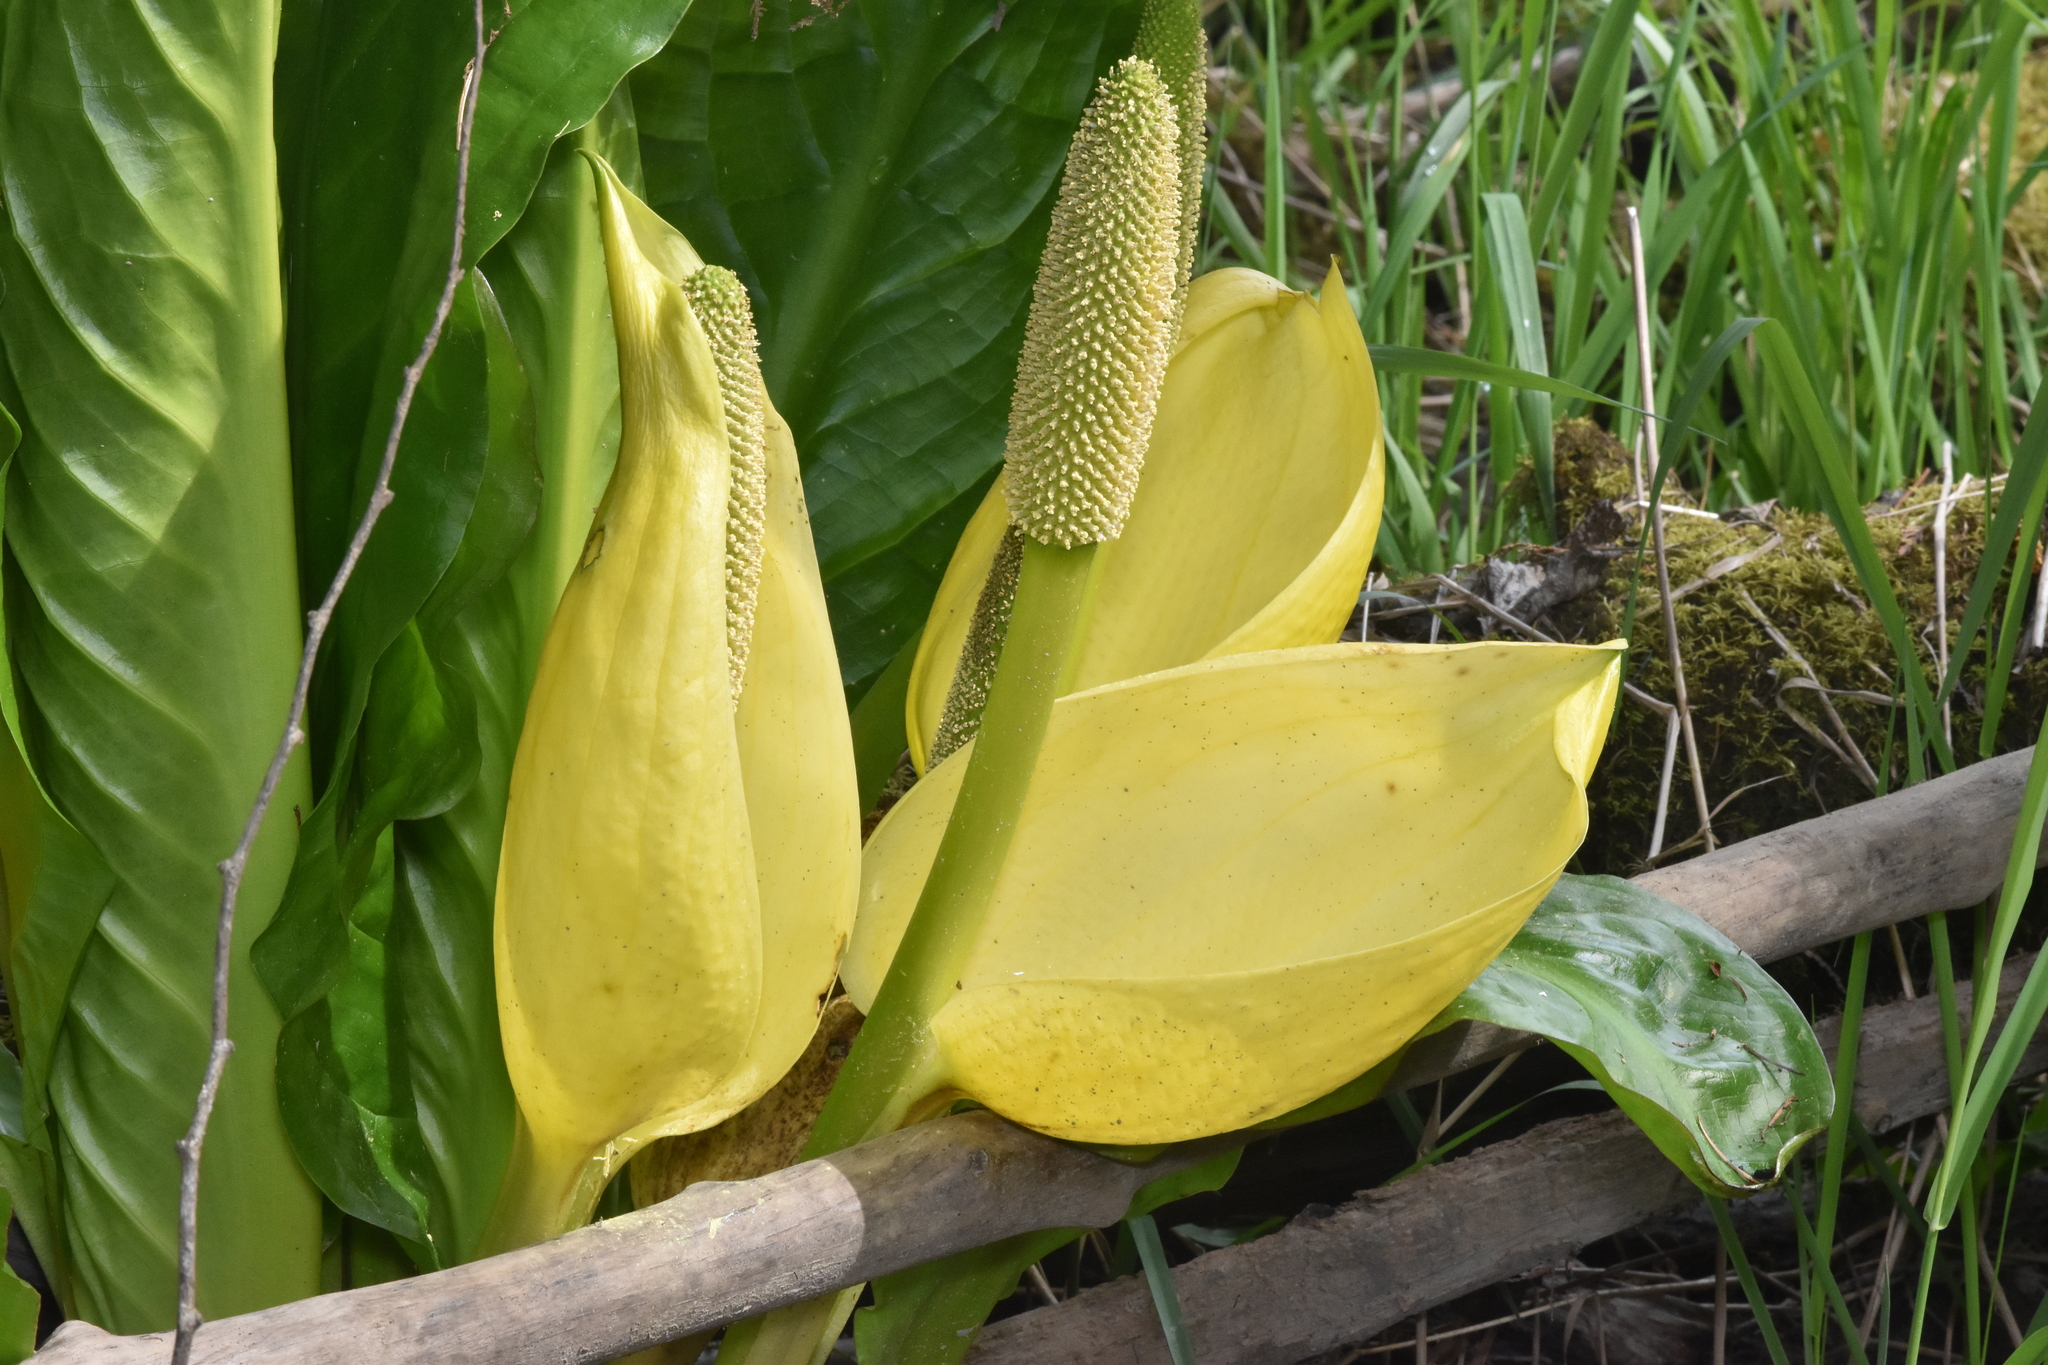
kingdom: Plantae
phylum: Tracheophyta
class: Liliopsida
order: Alismatales
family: Araceae
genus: Lysichiton
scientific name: Lysichiton americanus
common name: American skunk cabbage
